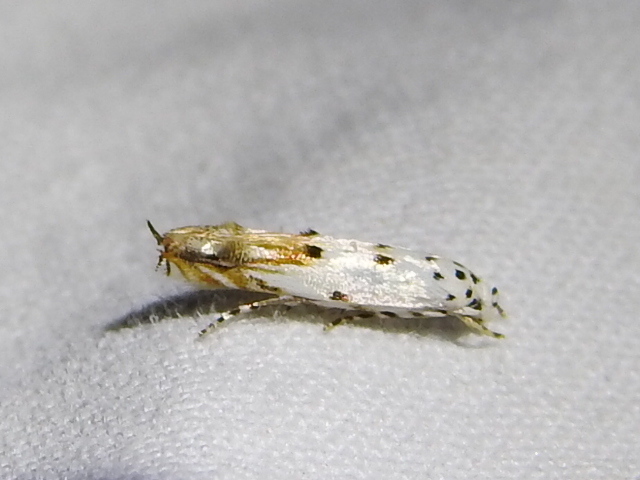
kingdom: Animalia
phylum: Arthropoda
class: Insecta
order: Lepidoptera
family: Momphidae
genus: Mompha
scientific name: Mompha eloisella
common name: Red-streaked mompha moth
